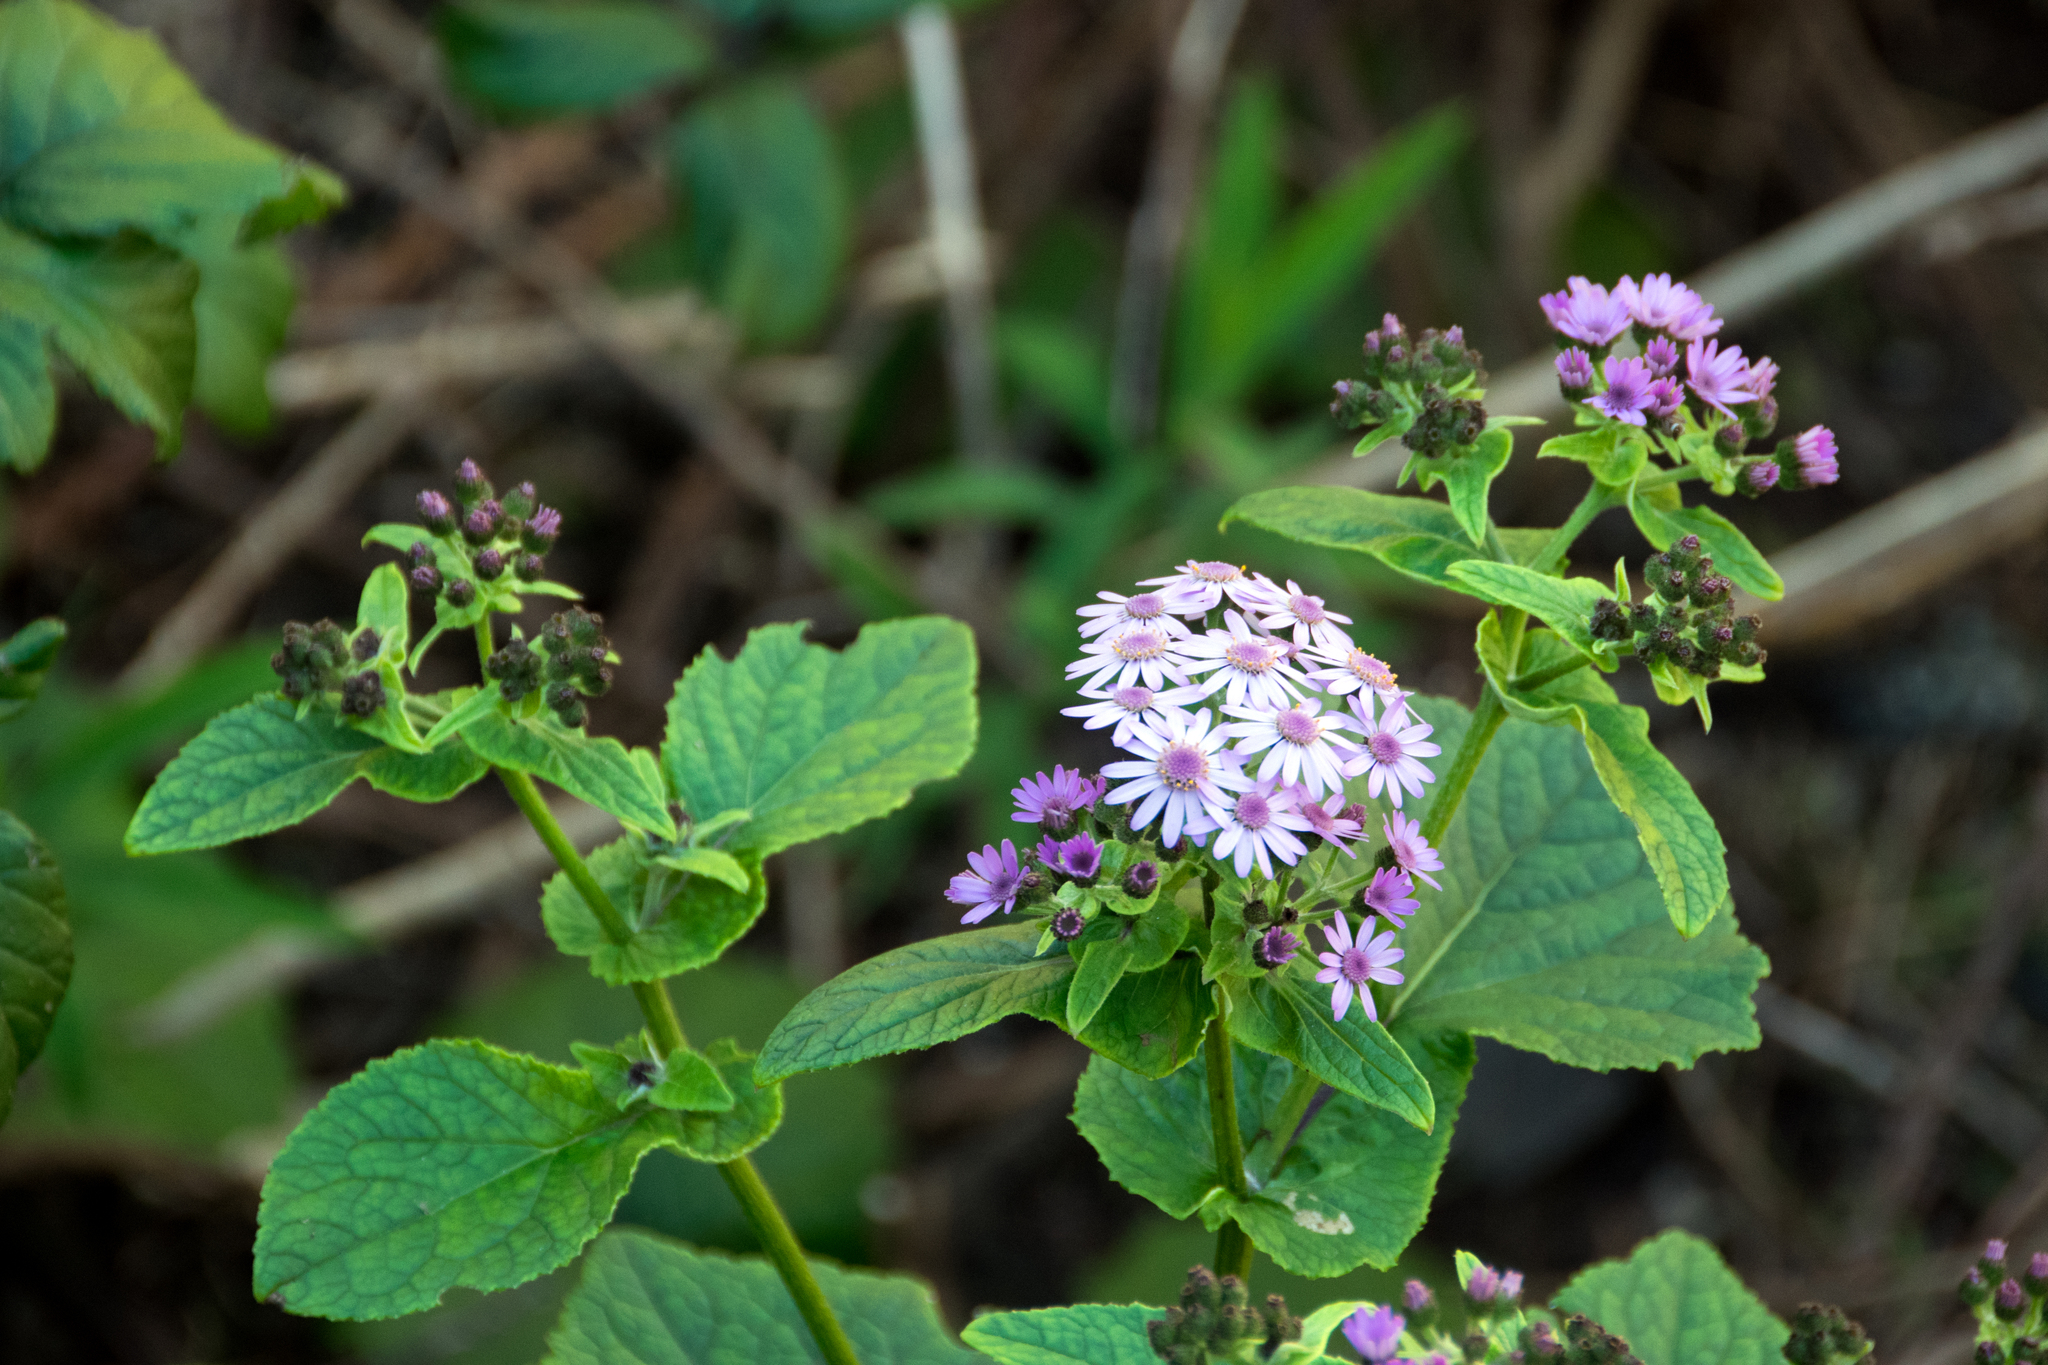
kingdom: Plantae
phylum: Tracheophyta
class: Magnoliopsida
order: Asterales
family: Asteraceae
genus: Pericallis
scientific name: Pericallis steetzii
